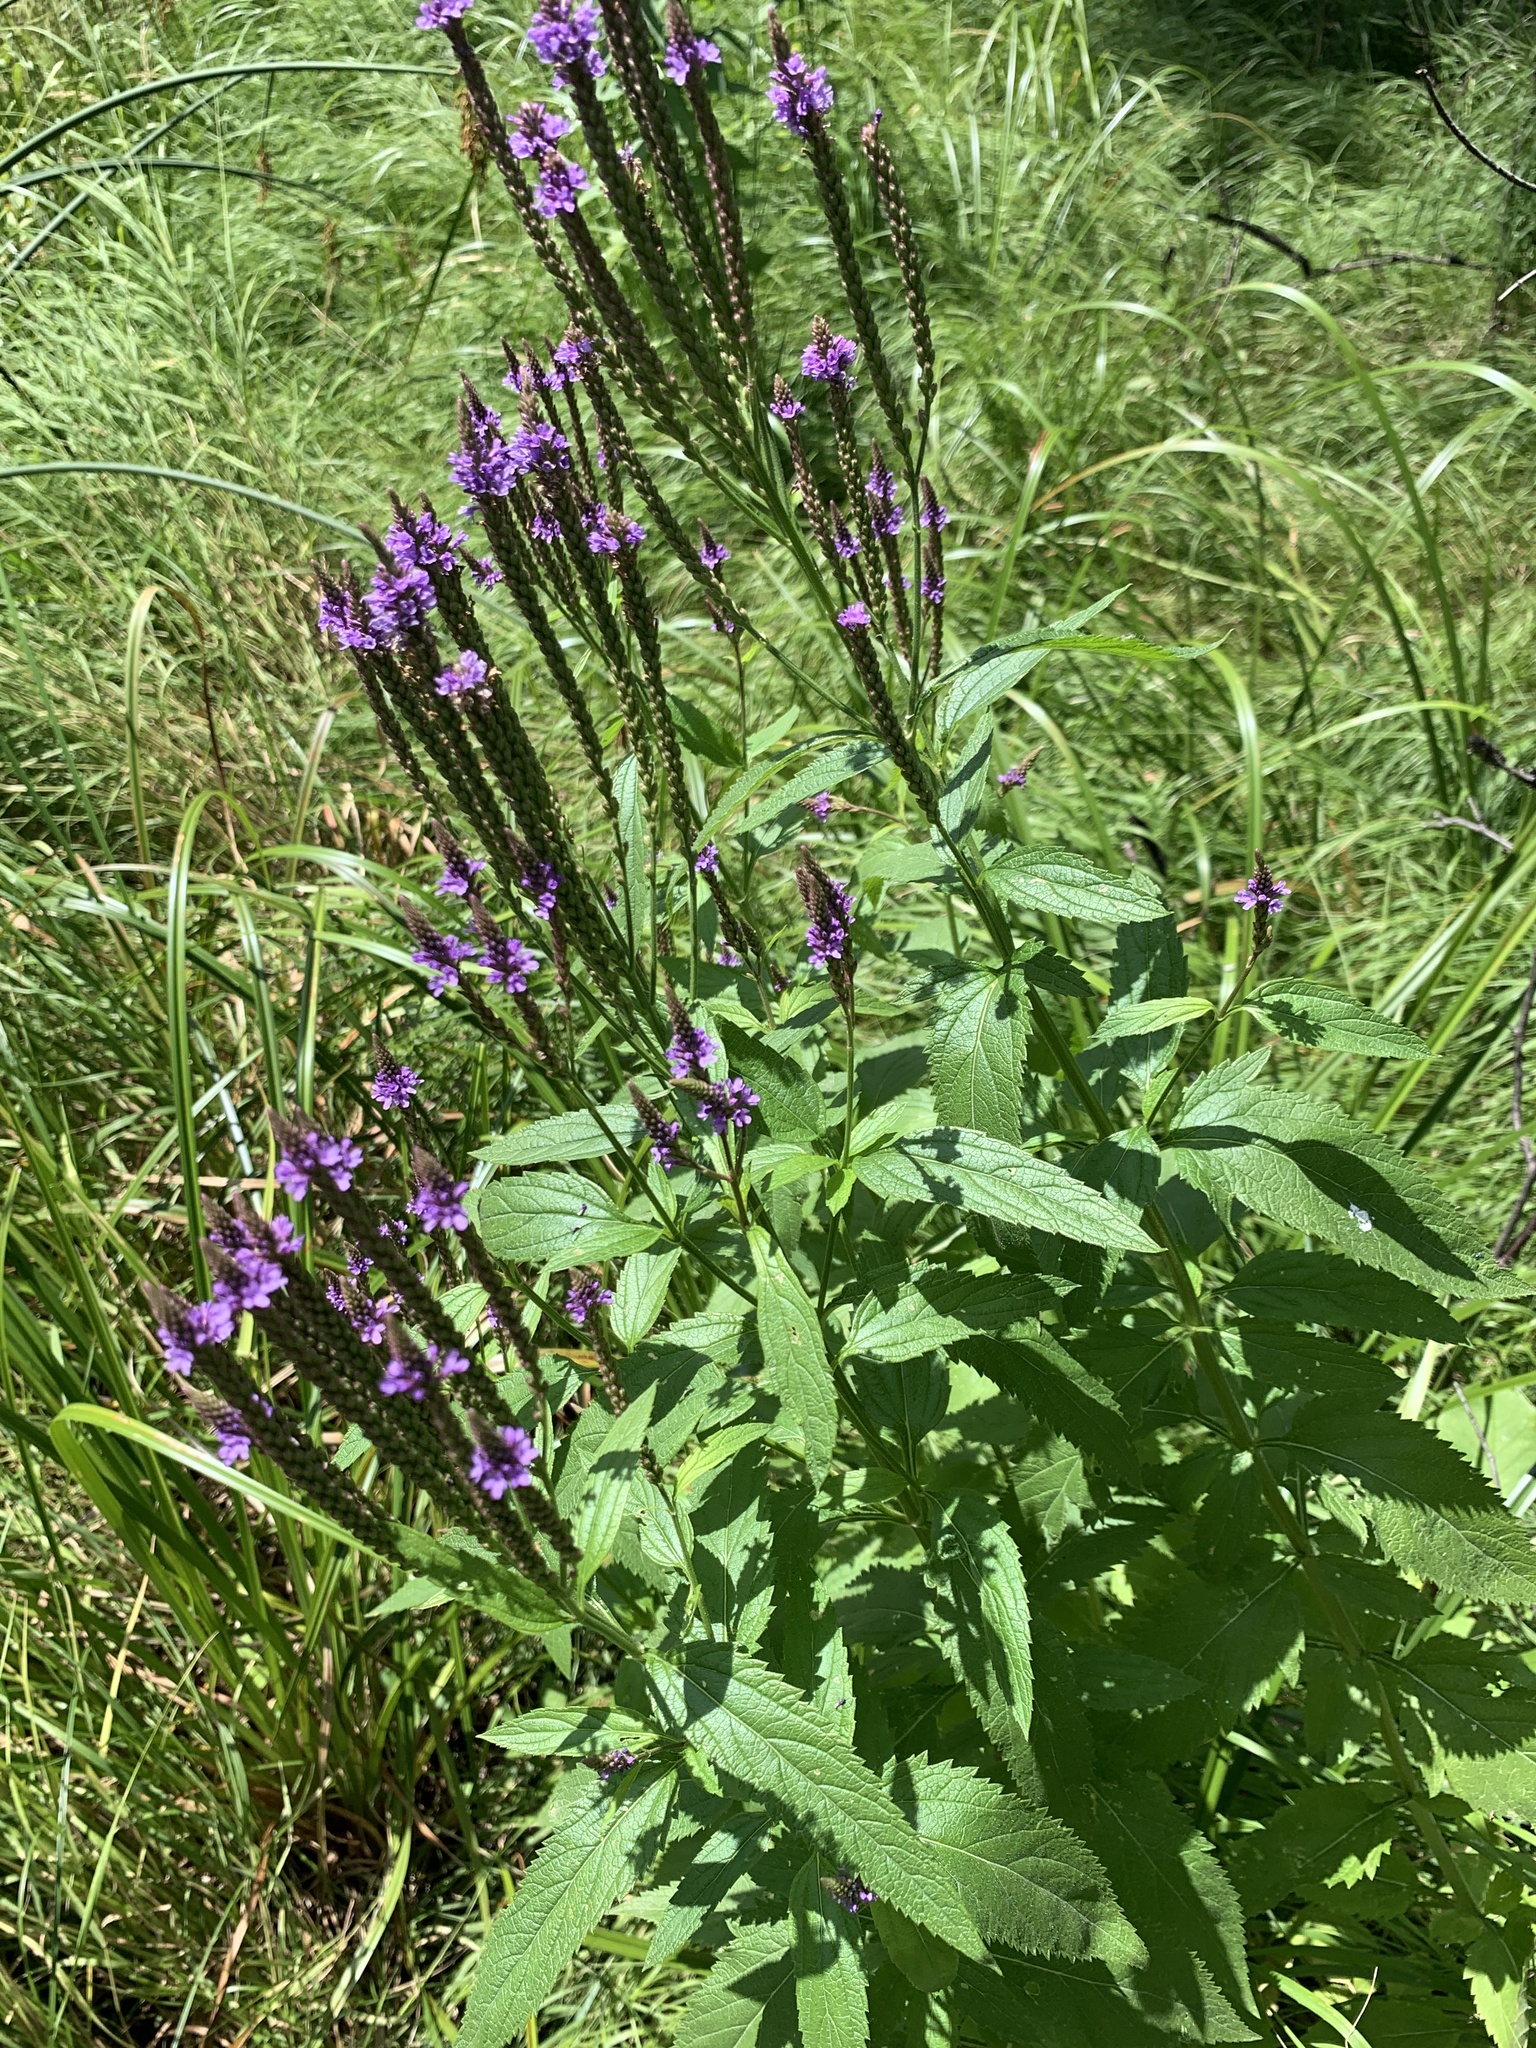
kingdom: Plantae
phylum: Tracheophyta
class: Magnoliopsida
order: Lamiales
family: Verbenaceae
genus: Verbena
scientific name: Verbena hastata
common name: American blue vervain
